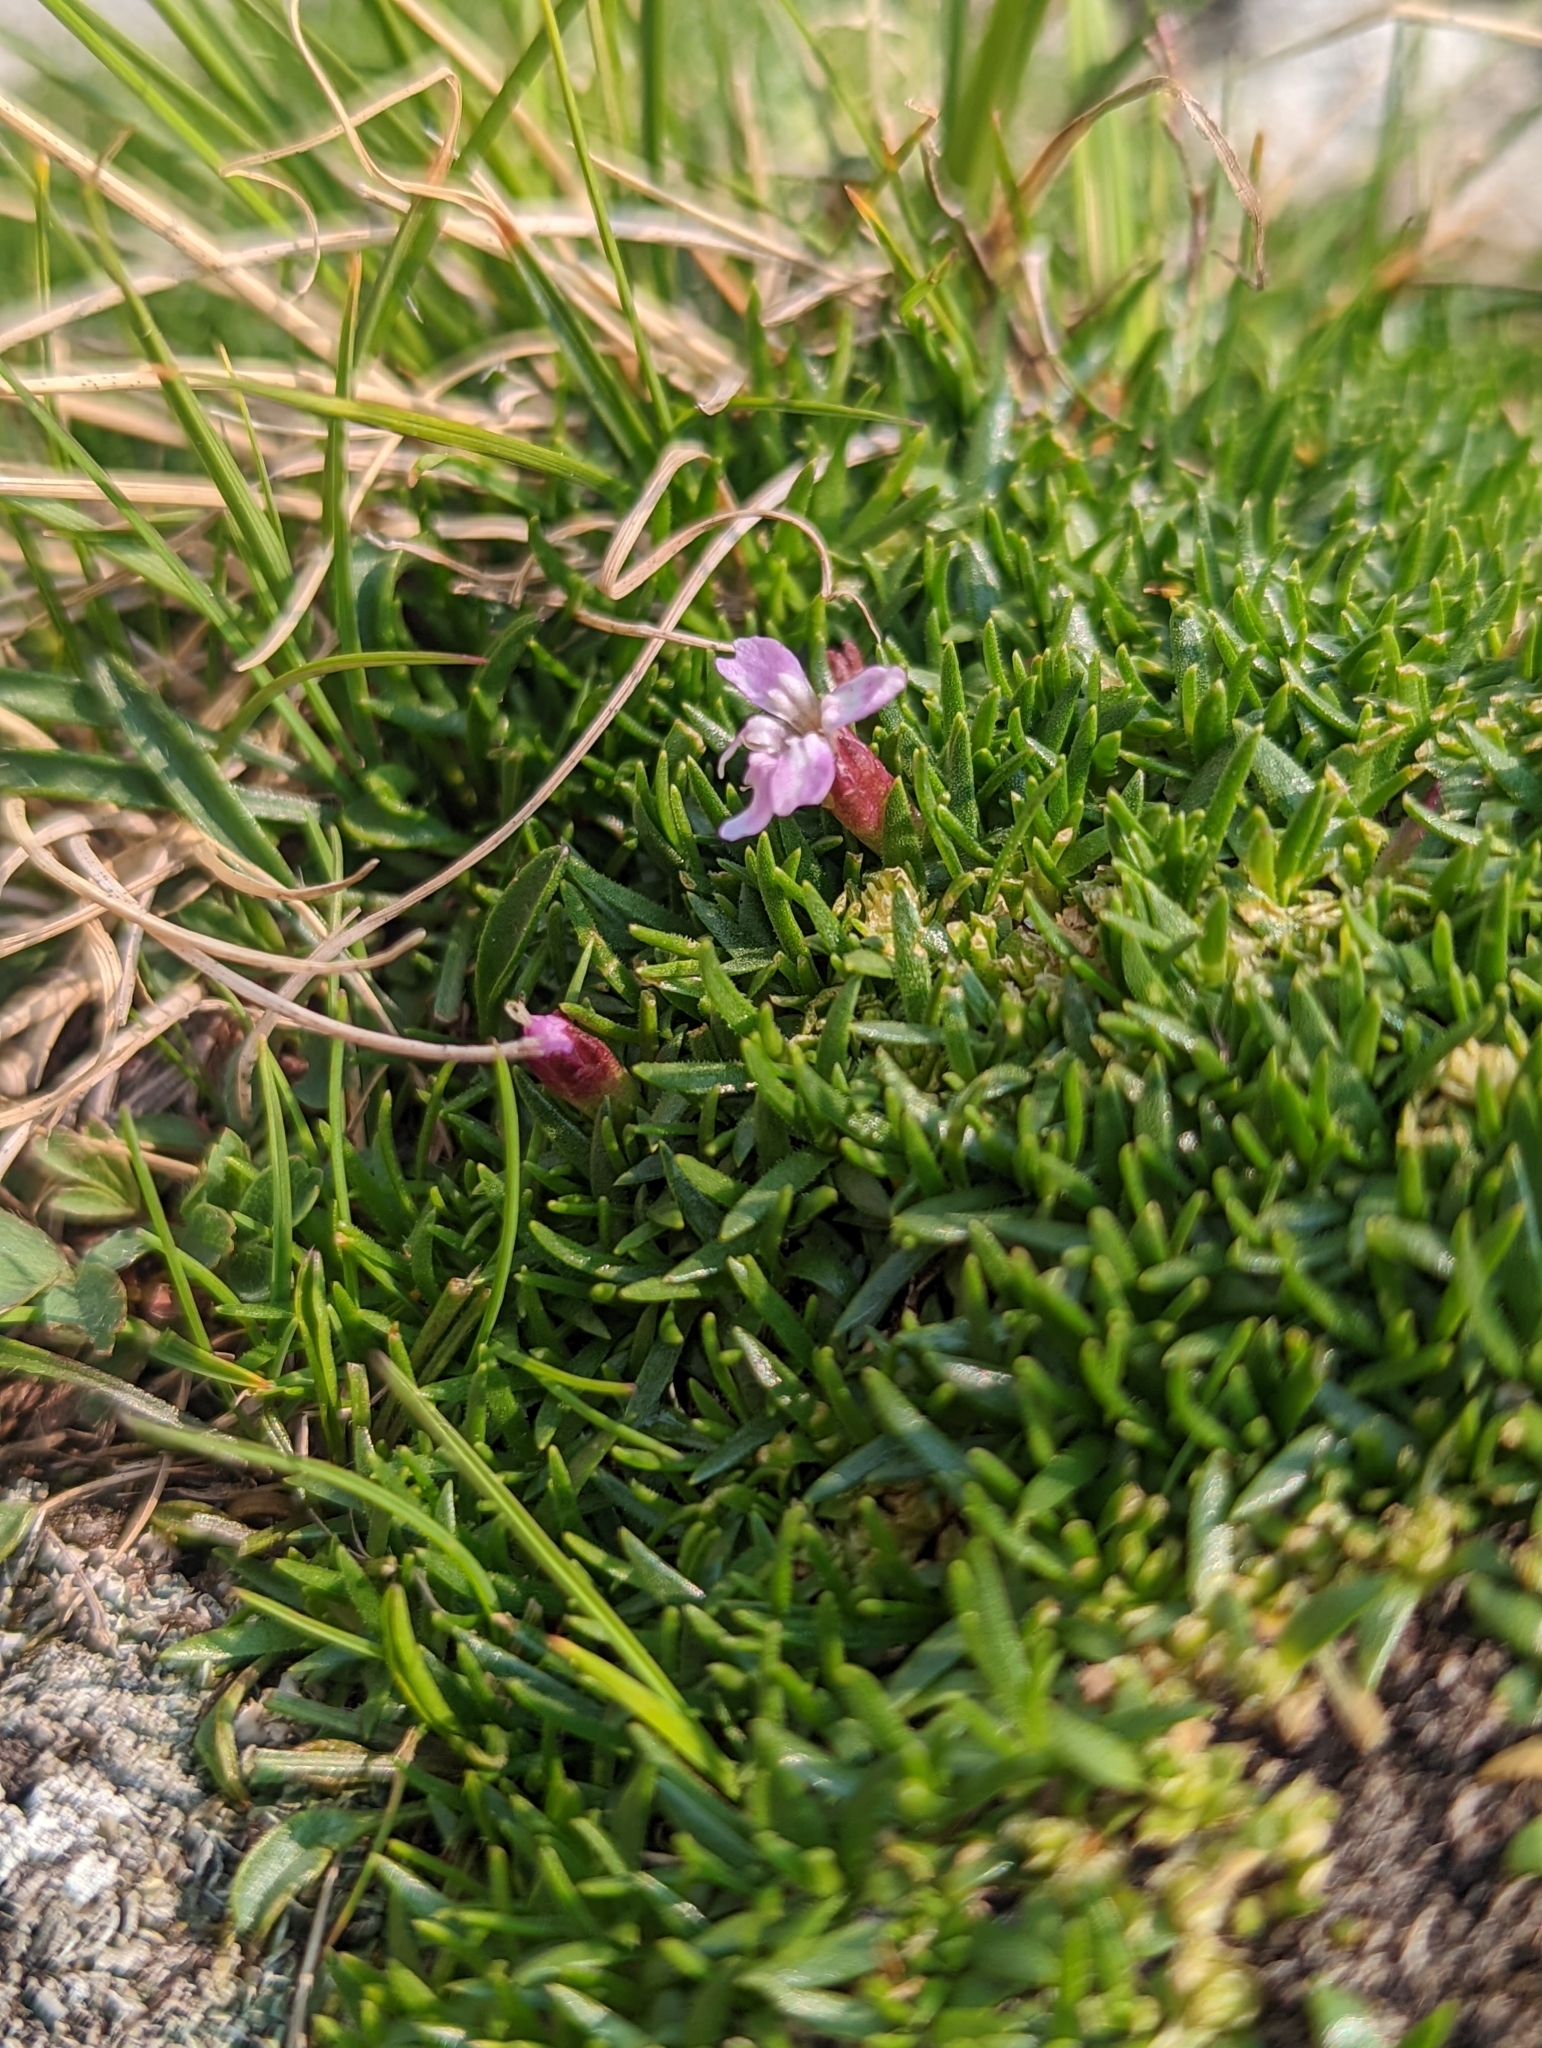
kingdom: Plantae
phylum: Tracheophyta
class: Magnoliopsida
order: Caryophyllales
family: Caryophyllaceae
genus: Silene
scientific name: Silene acaulis
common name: Moss campion
